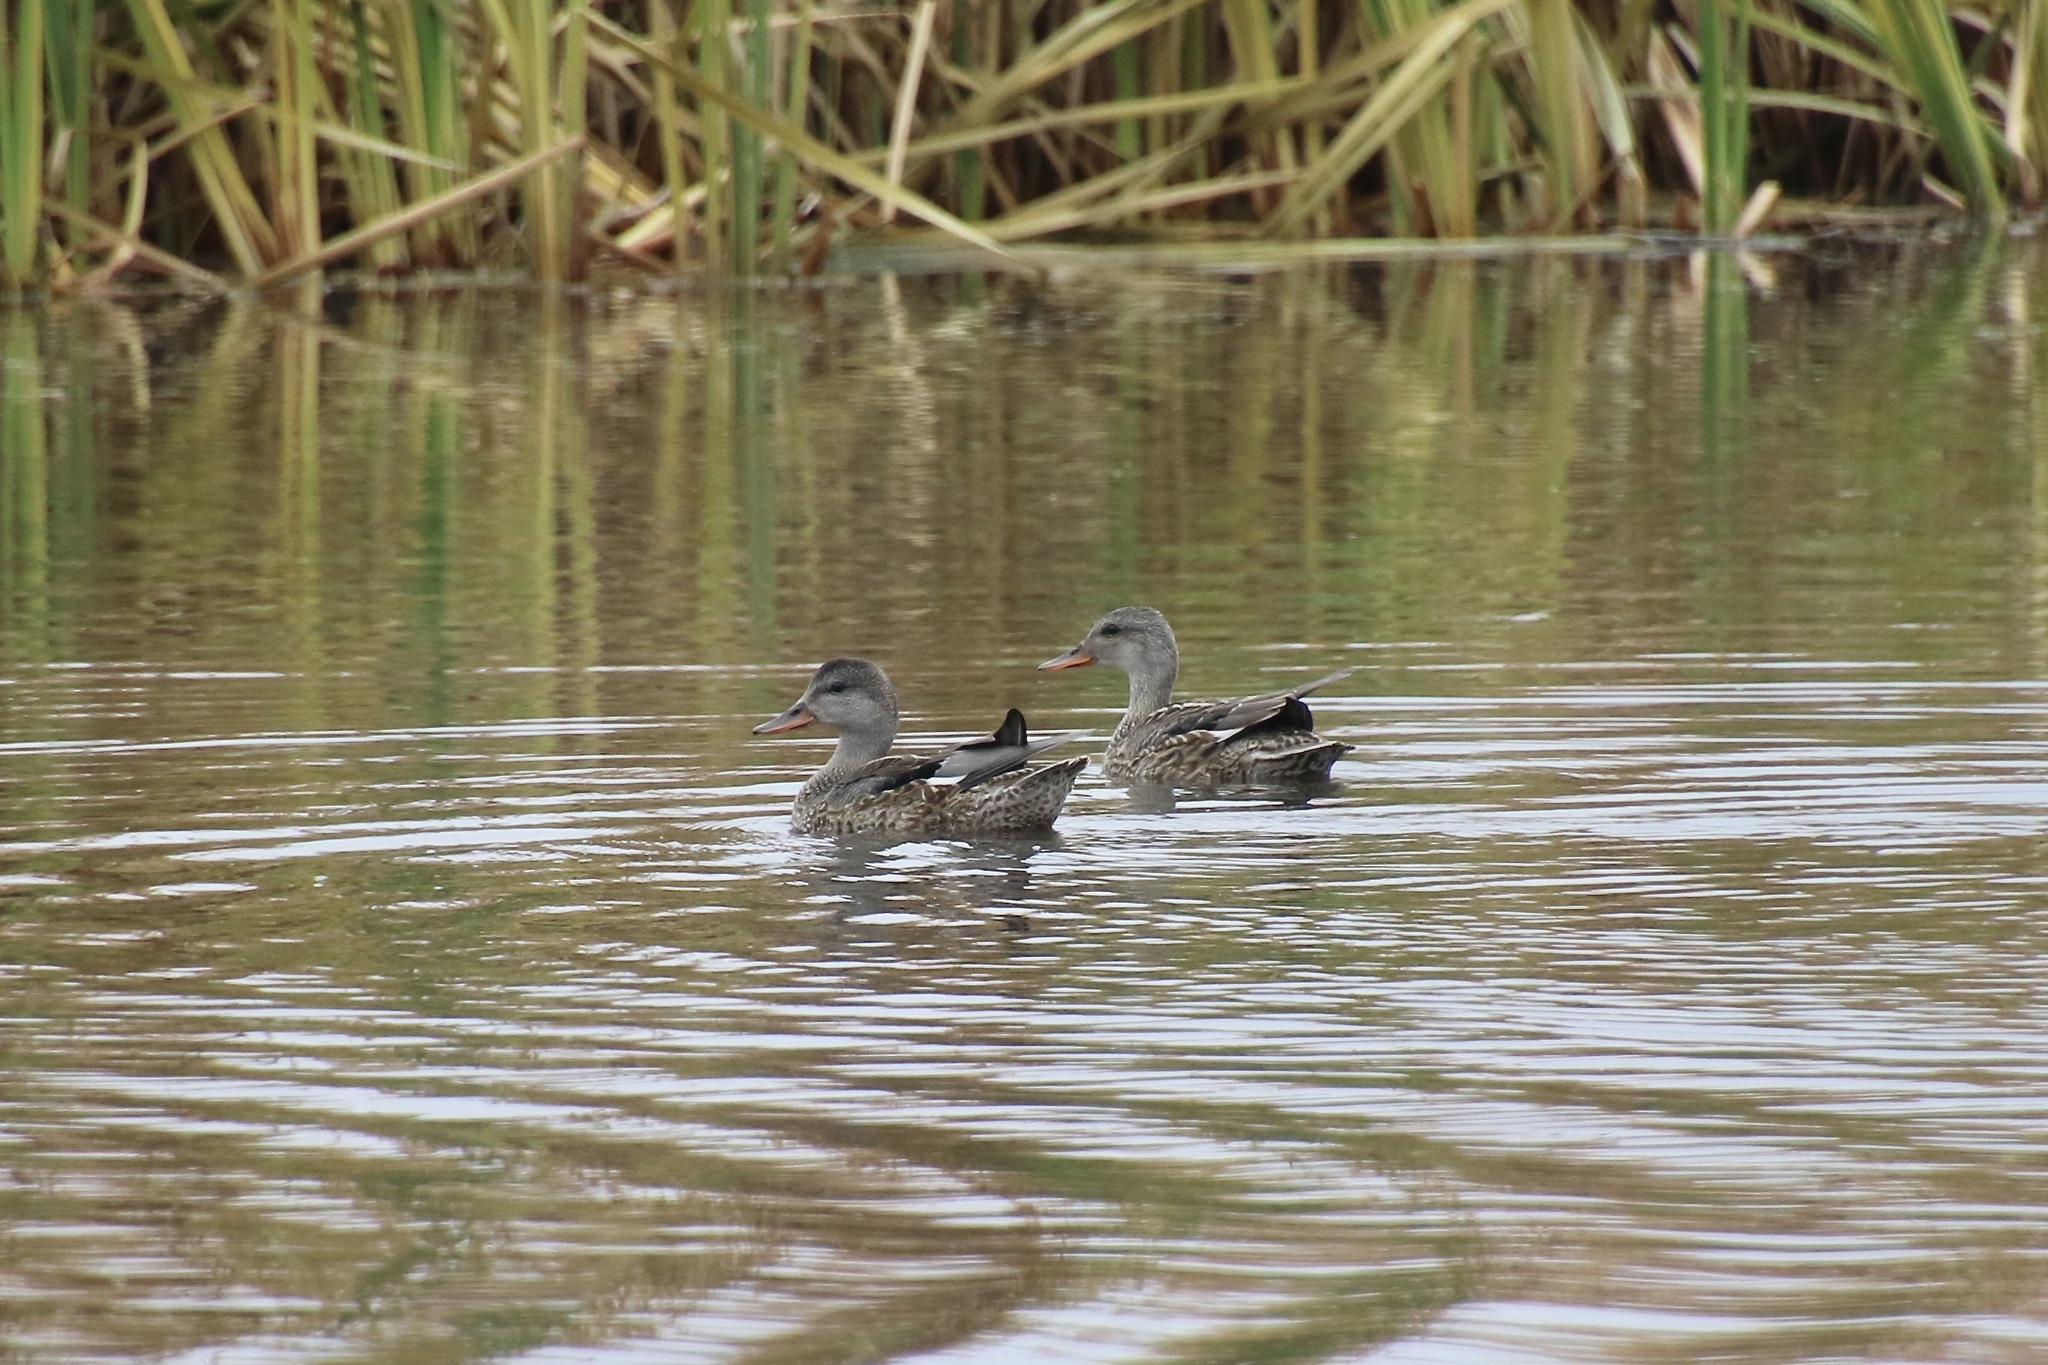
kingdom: Animalia
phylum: Chordata
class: Aves
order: Anseriformes
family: Anatidae
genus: Mareca
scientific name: Mareca strepera
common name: Gadwall
